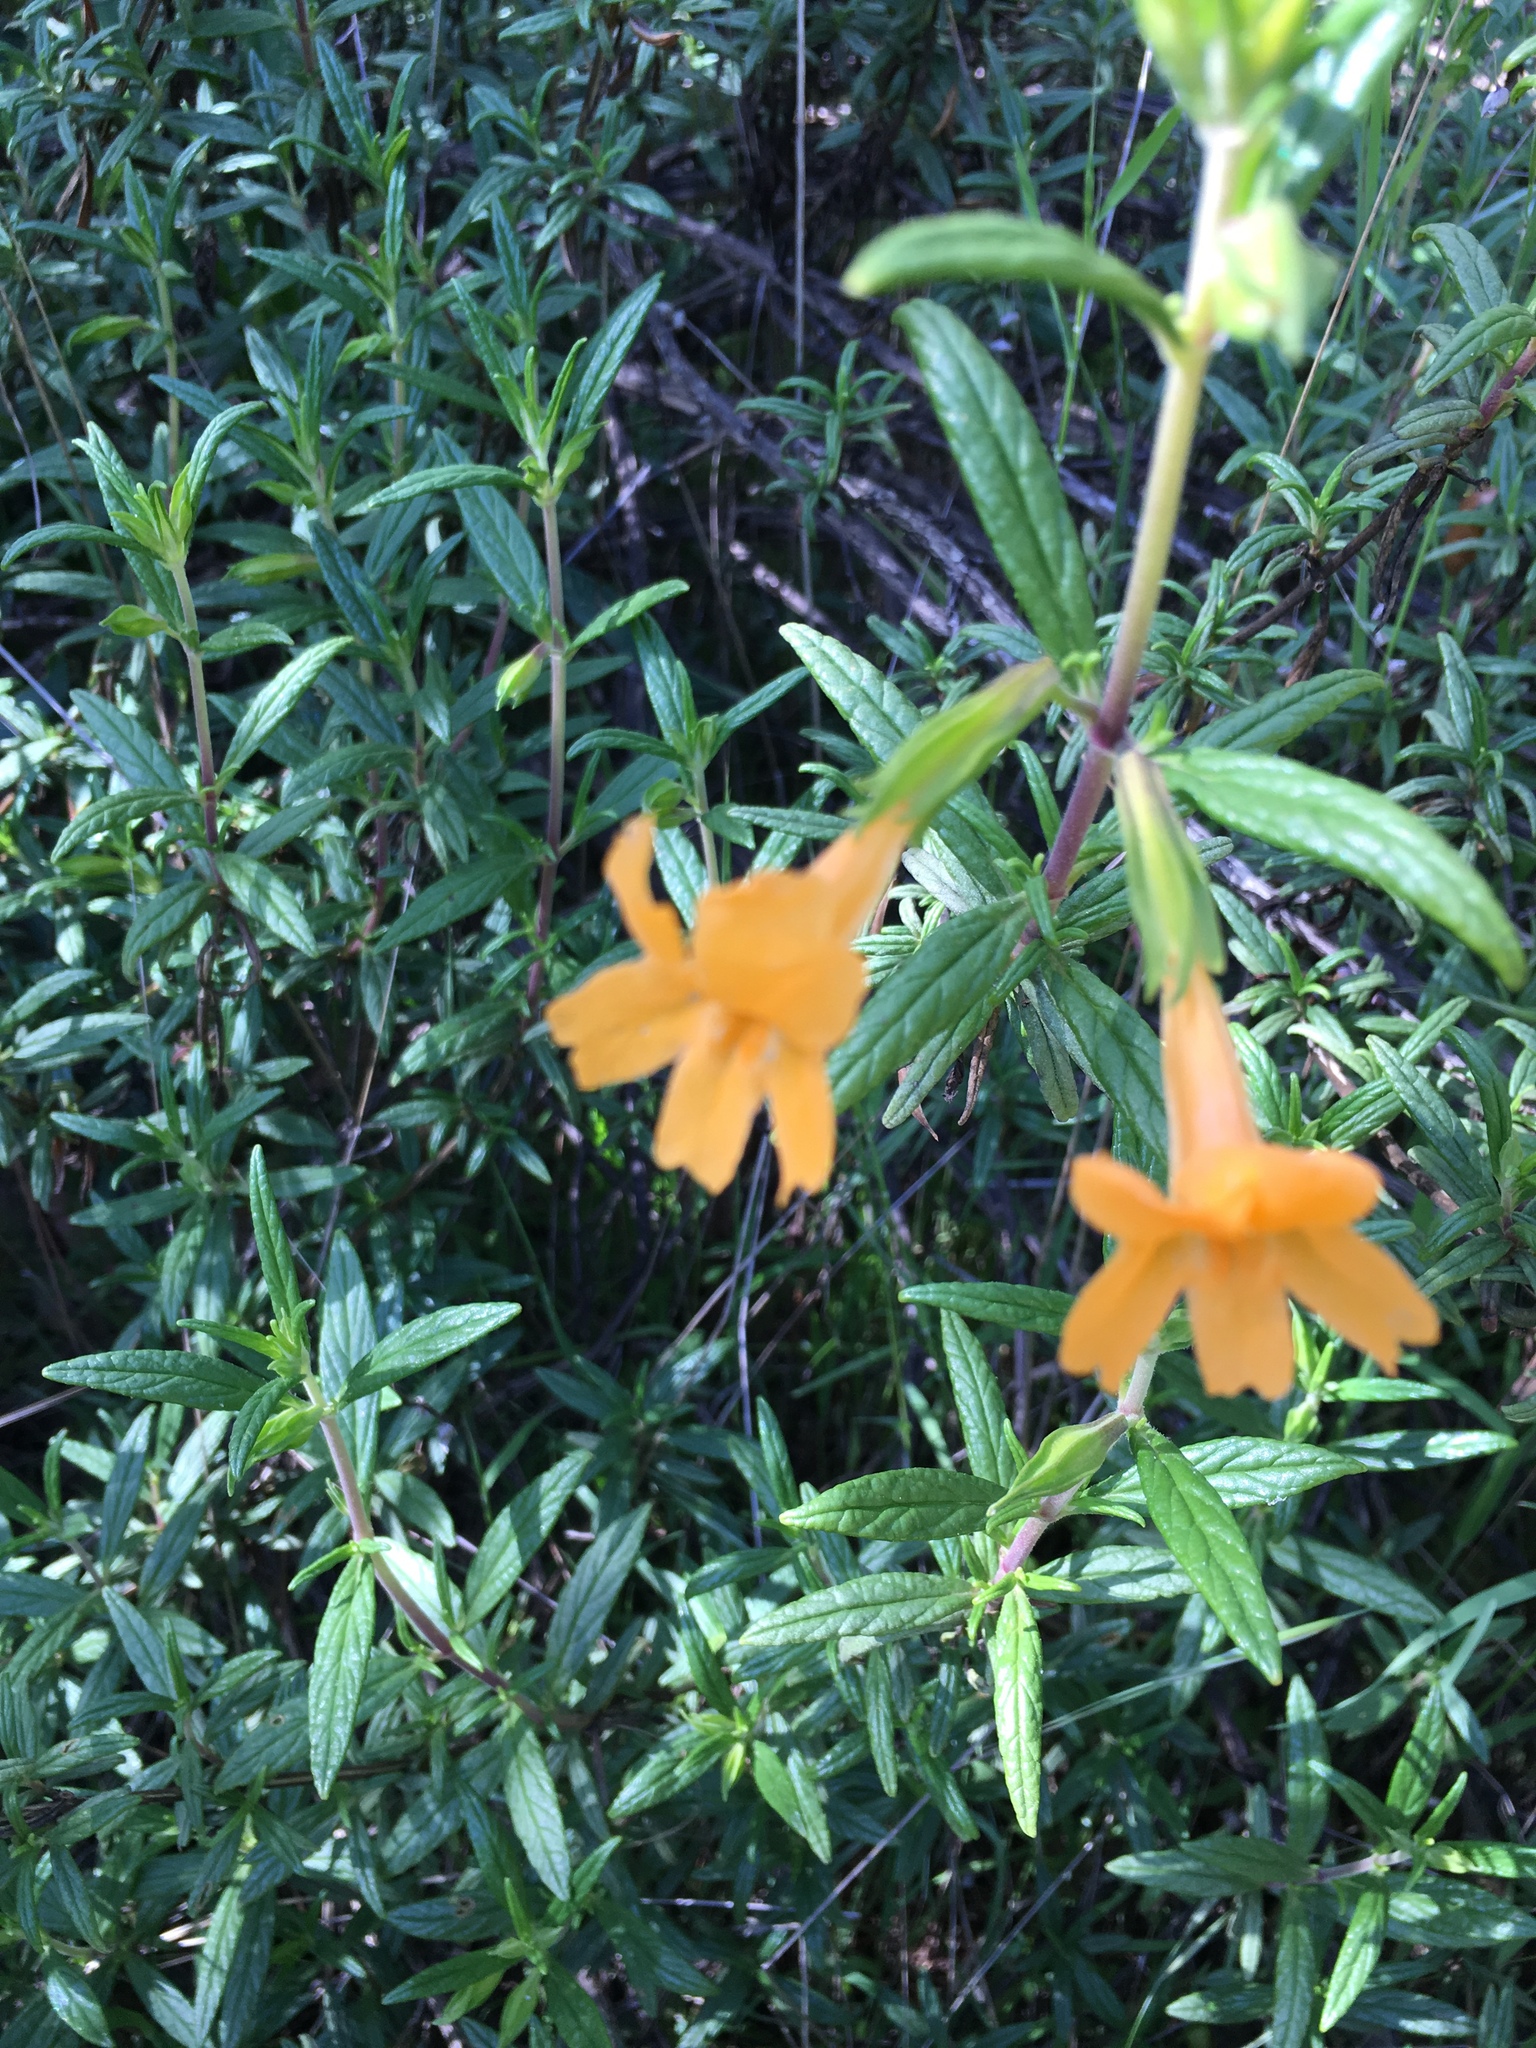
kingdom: Plantae
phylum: Tracheophyta
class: Magnoliopsida
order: Lamiales
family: Phrymaceae
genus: Diplacus
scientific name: Diplacus aurantiacus
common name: Bush monkey-flower
